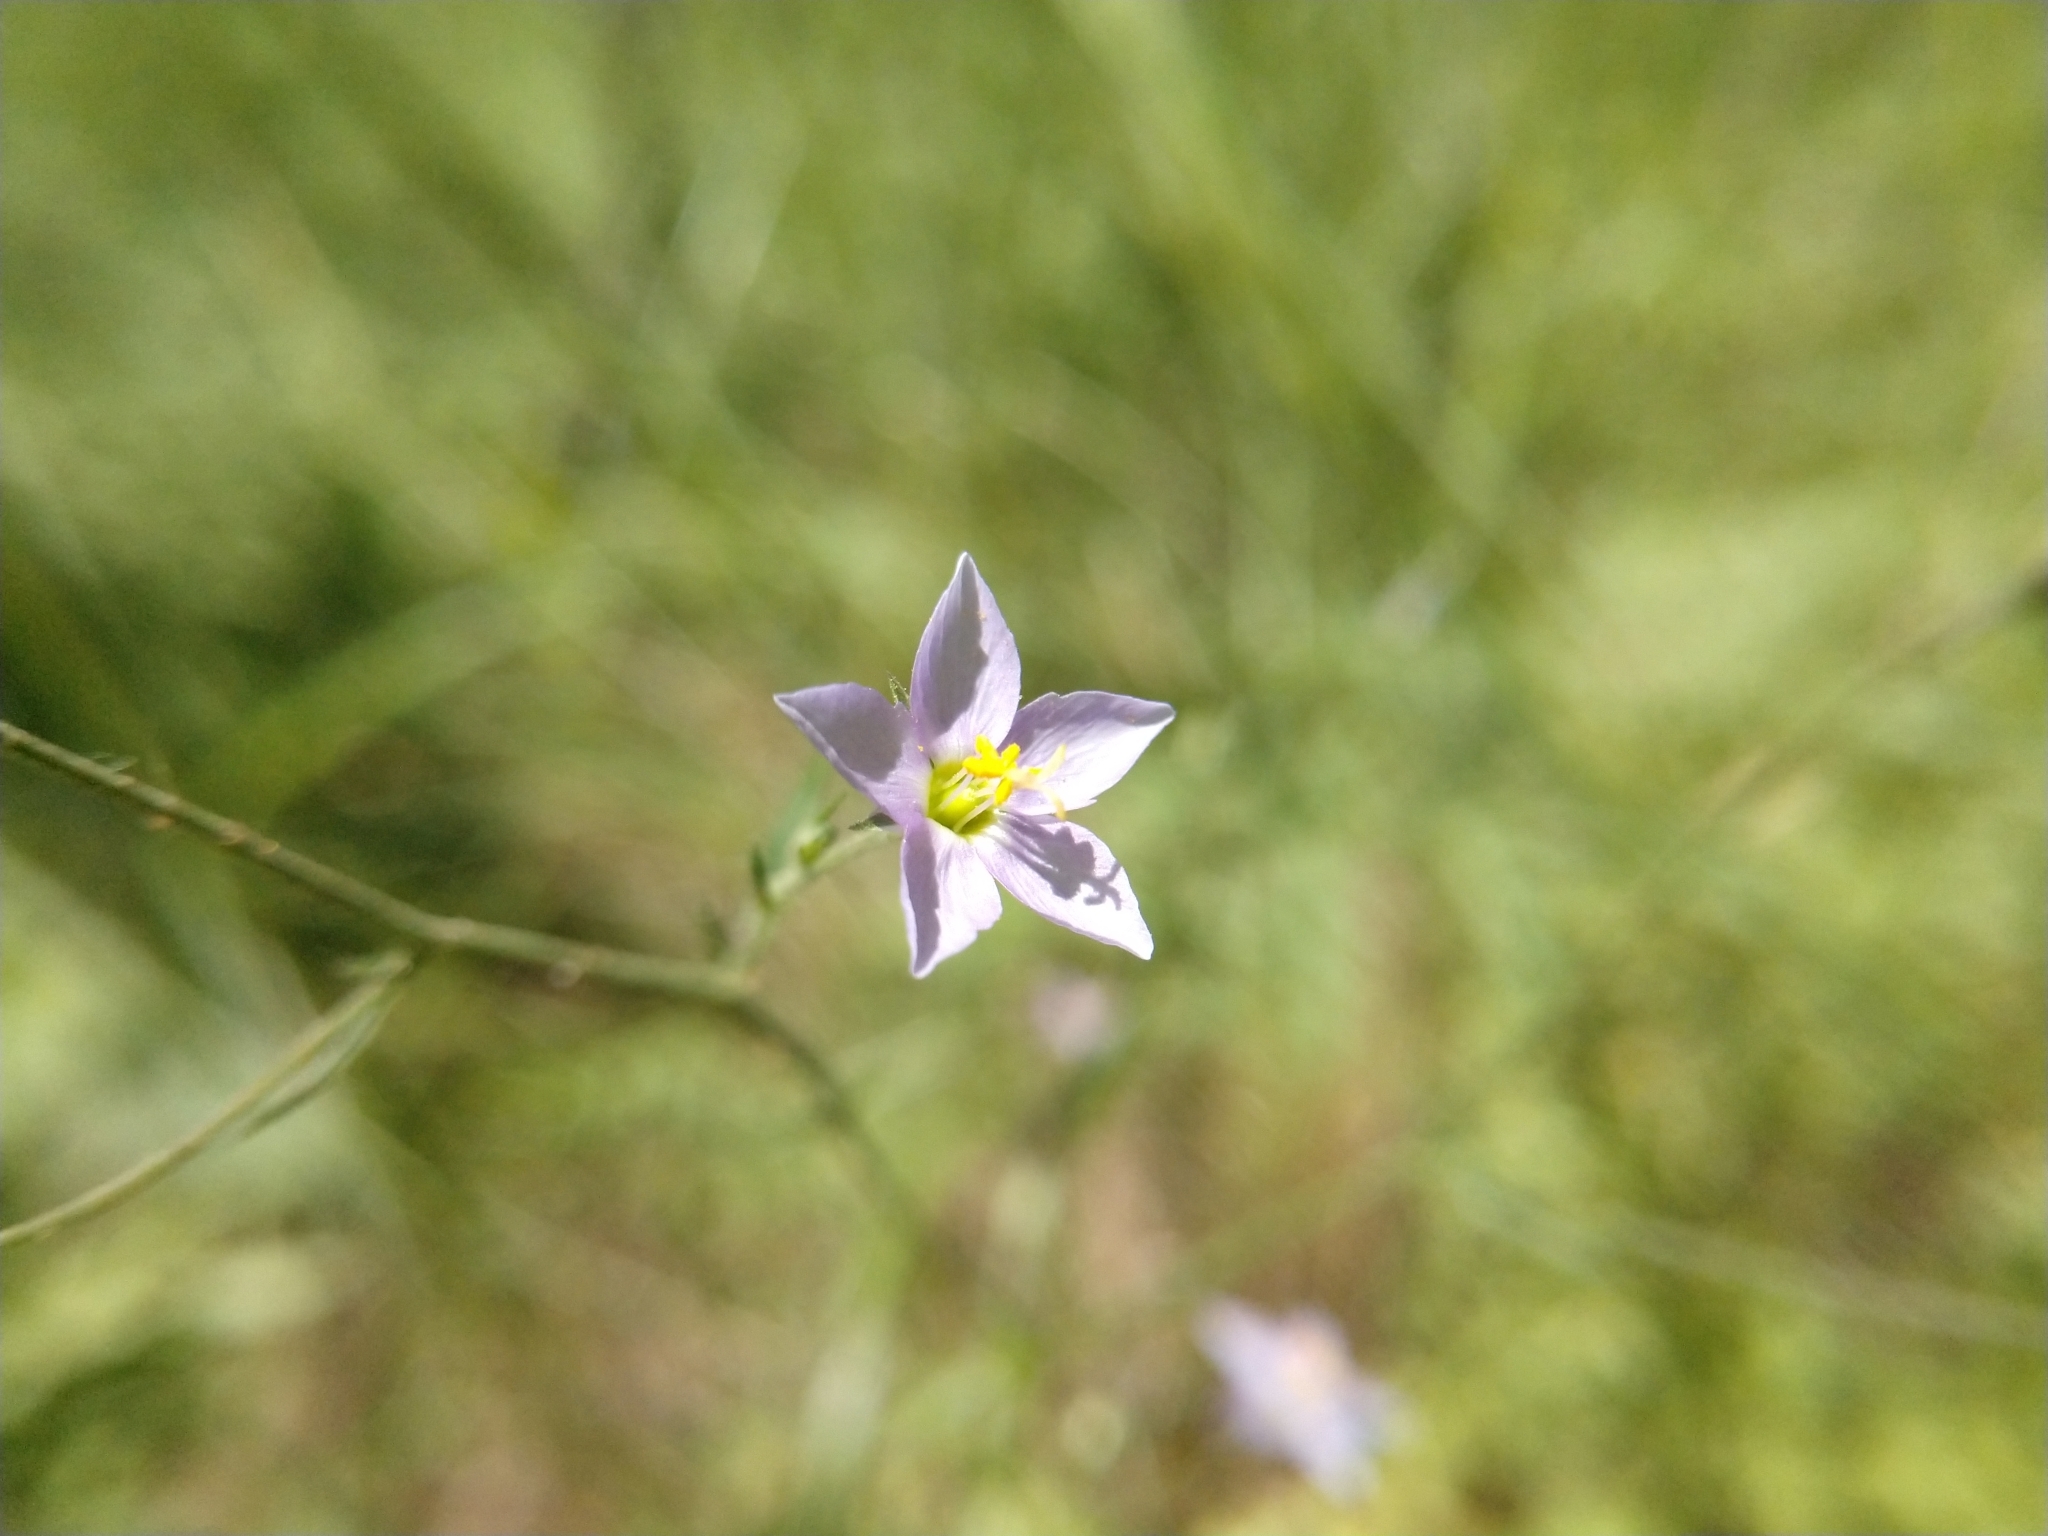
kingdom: Plantae
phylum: Tracheophyta
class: Magnoliopsida
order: Ericales
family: Polemoniaceae
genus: Giliastrum
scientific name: Giliastrum incisum
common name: Splitleaf gilia
